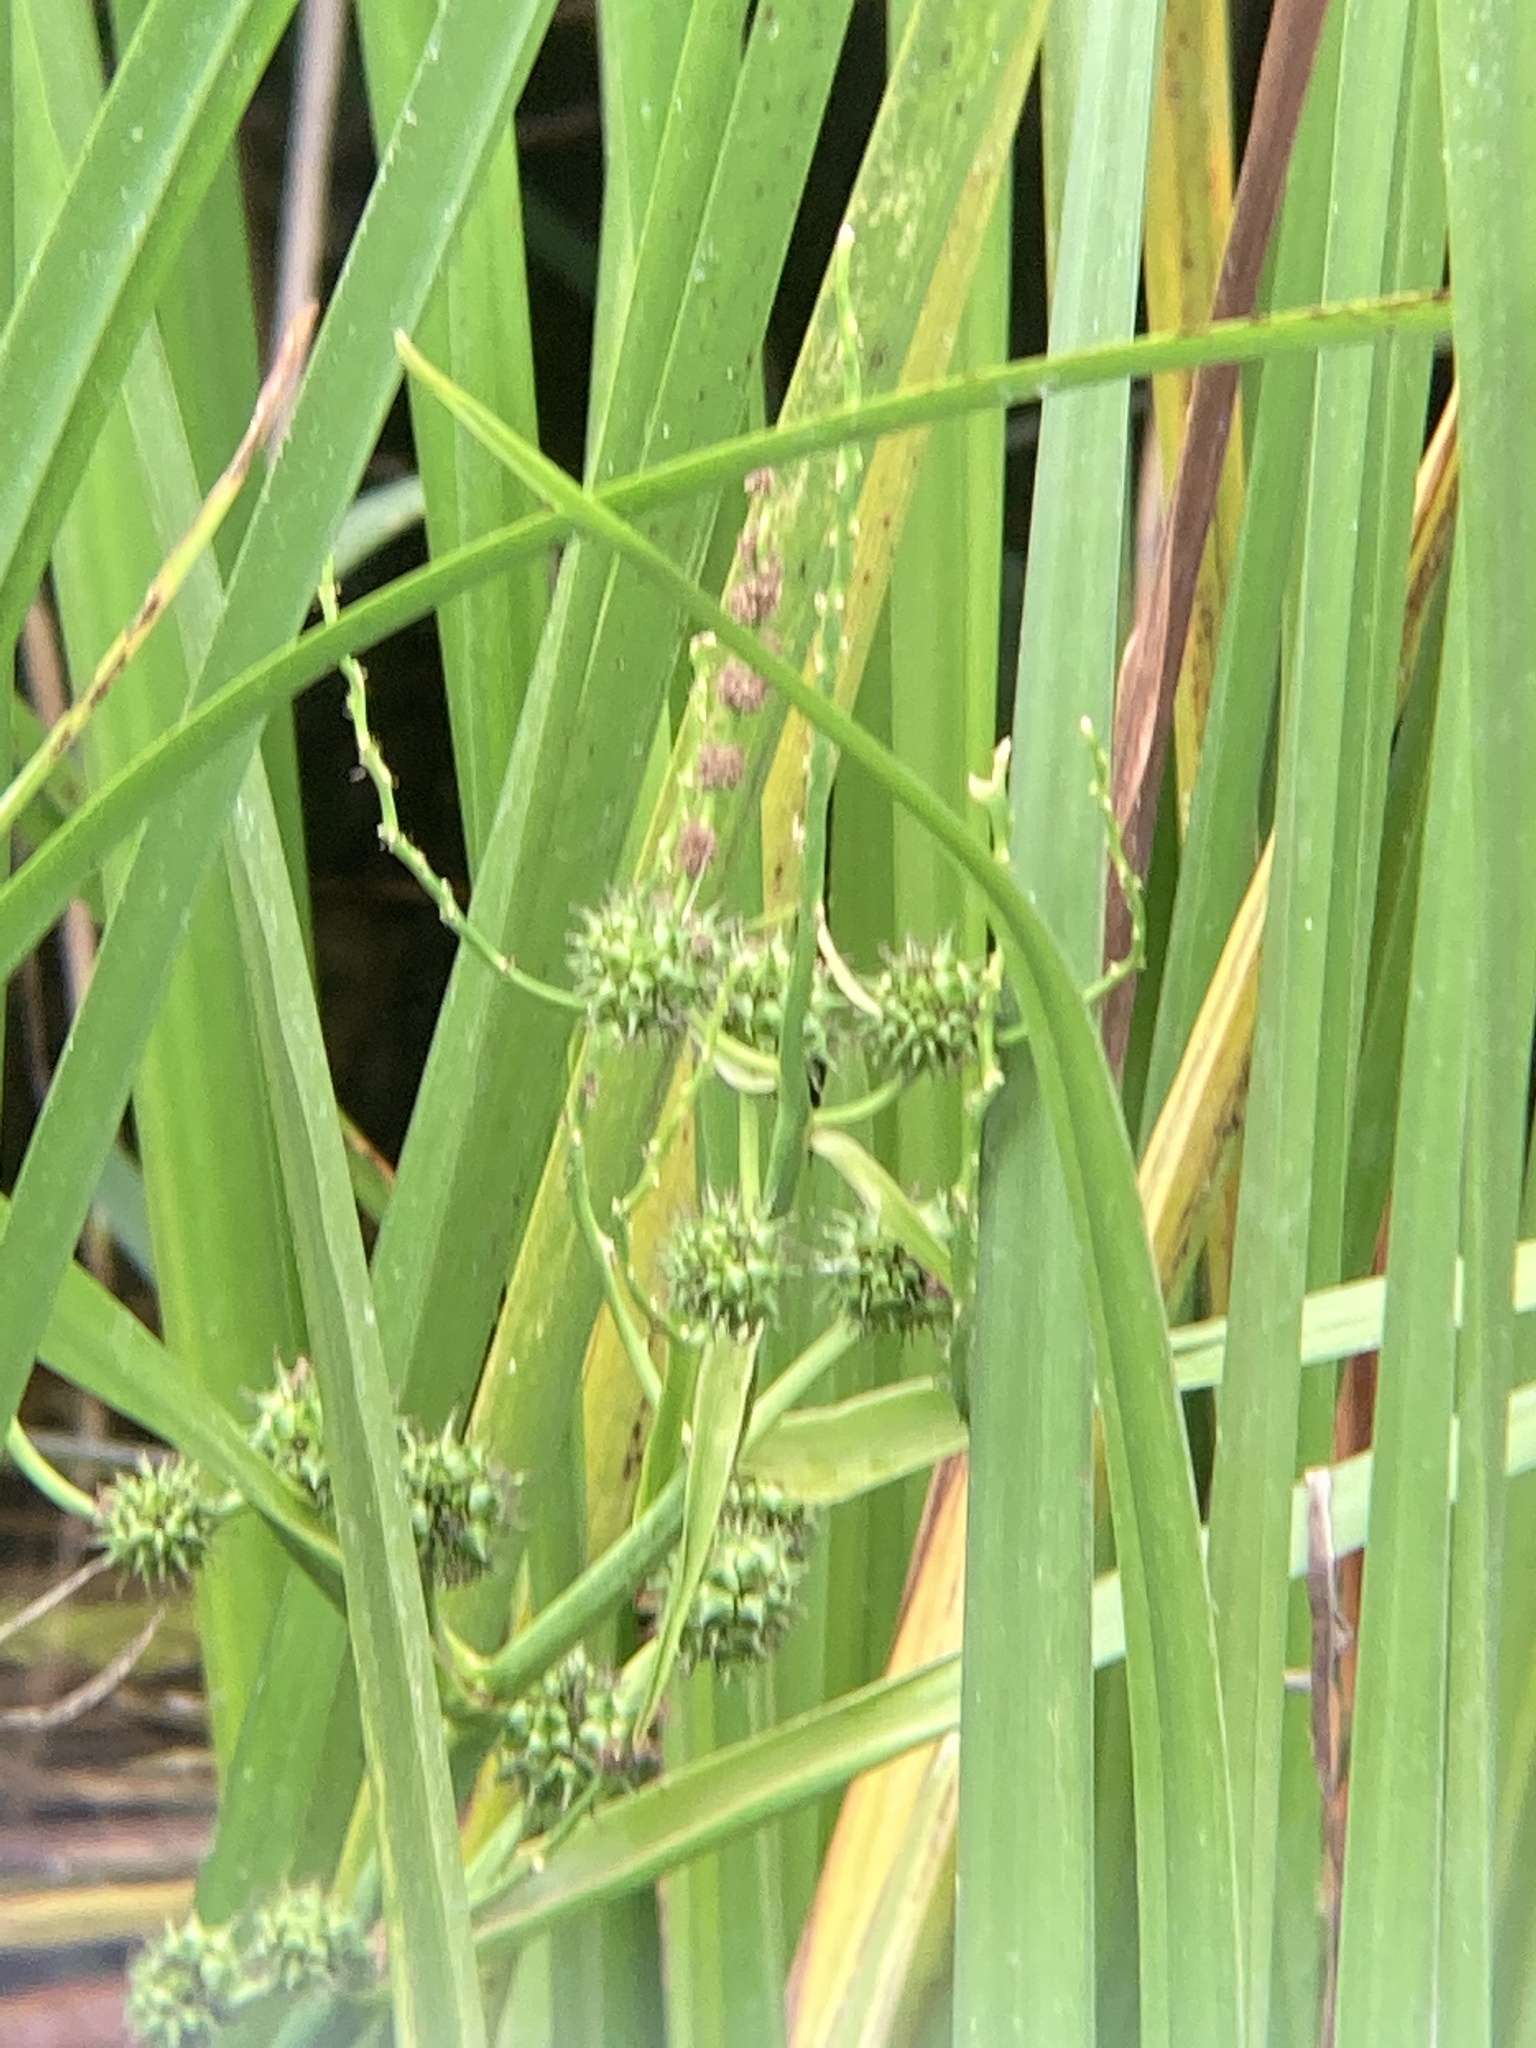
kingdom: Plantae
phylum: Tracheophyta
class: Liliopsida
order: Poales
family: Typhaceae
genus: Sparganium
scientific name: Sparganium erectum
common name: Branched bur-reed
